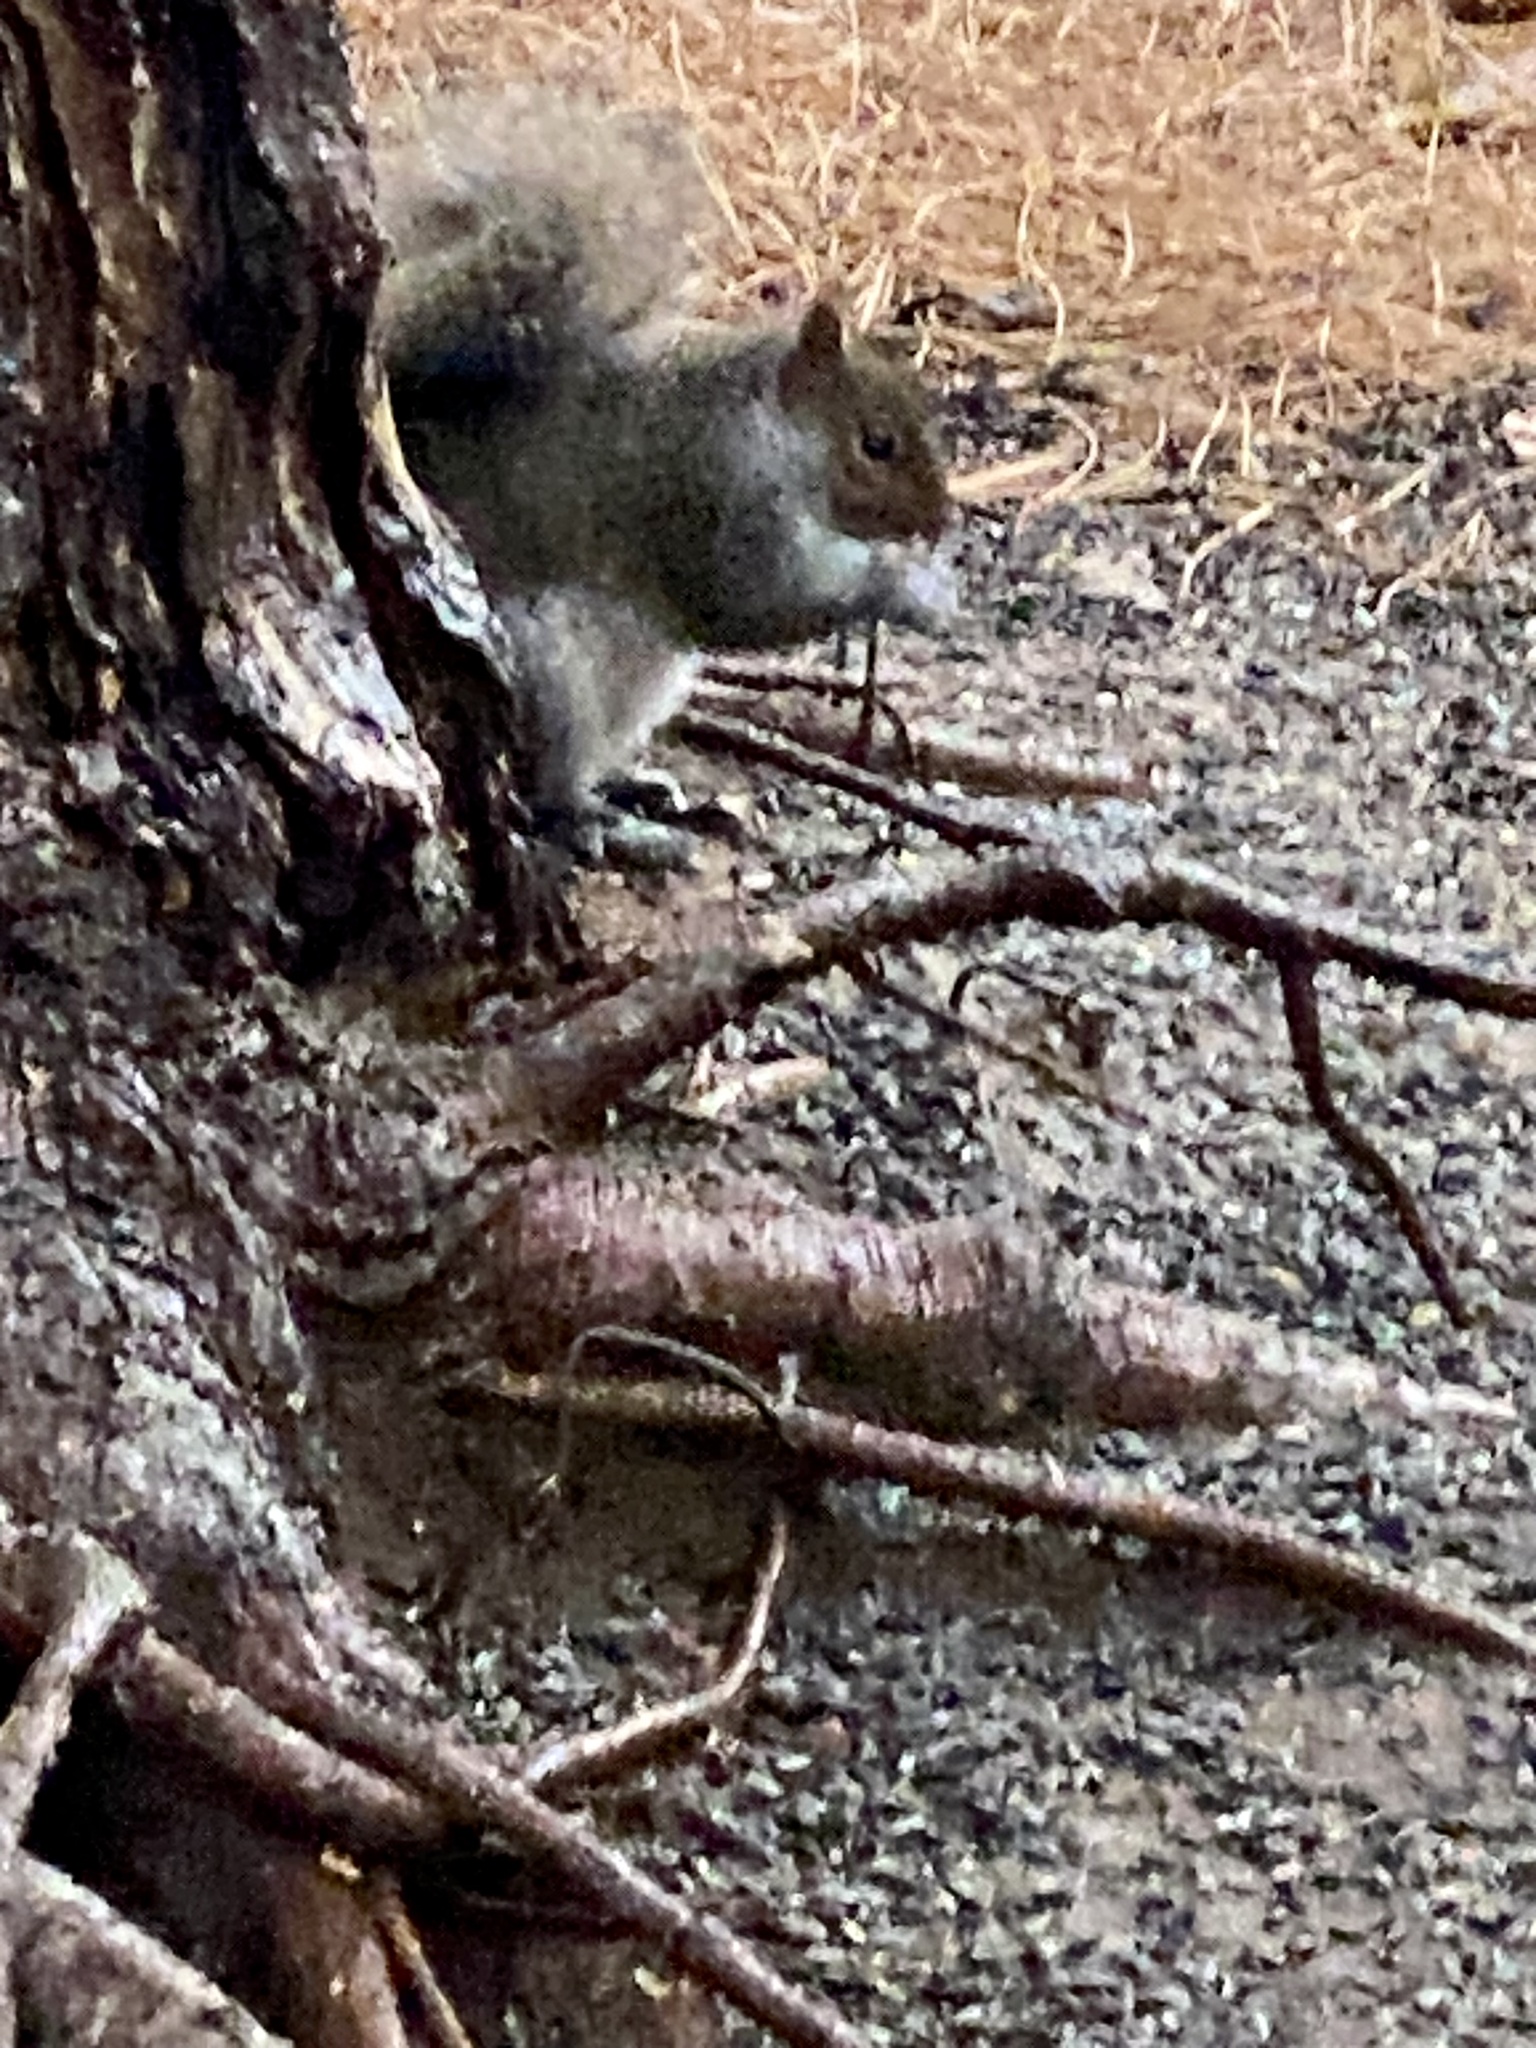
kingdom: Animalia
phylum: Chordata
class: Mammalia
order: Rodentia
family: Sciuridae
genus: Sciurus
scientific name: Sciurus carolinensis
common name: Eastern gray squirrel
